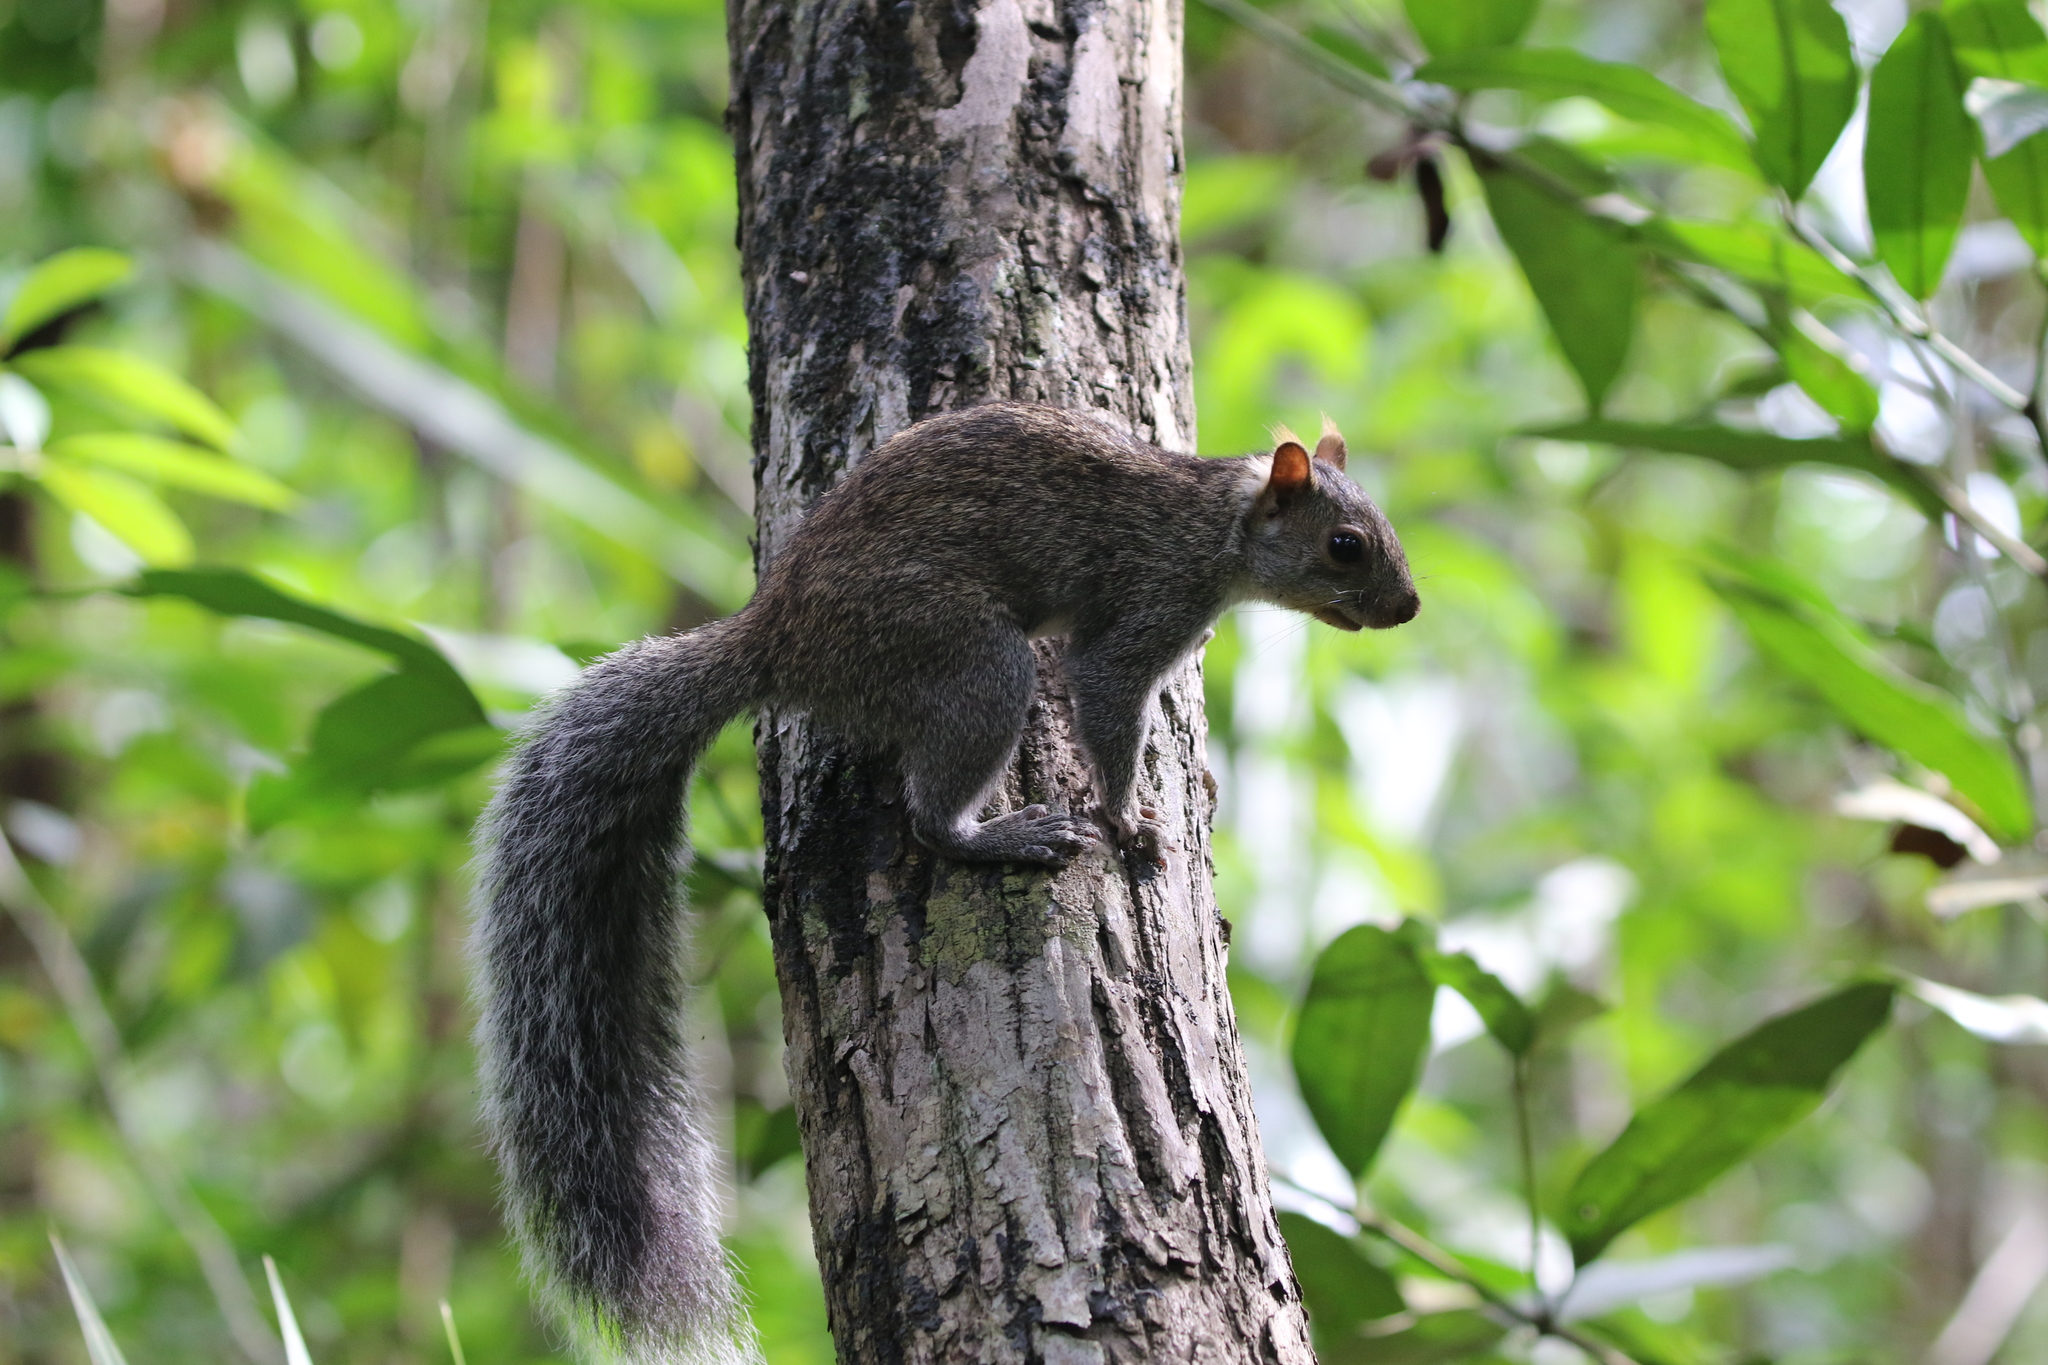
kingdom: Animalia
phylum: Chordata
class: Mammalia
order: Rodentia
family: Sciuridae
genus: Sciurus
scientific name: Sciurus yucatanensis
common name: Yucatan squirrel
